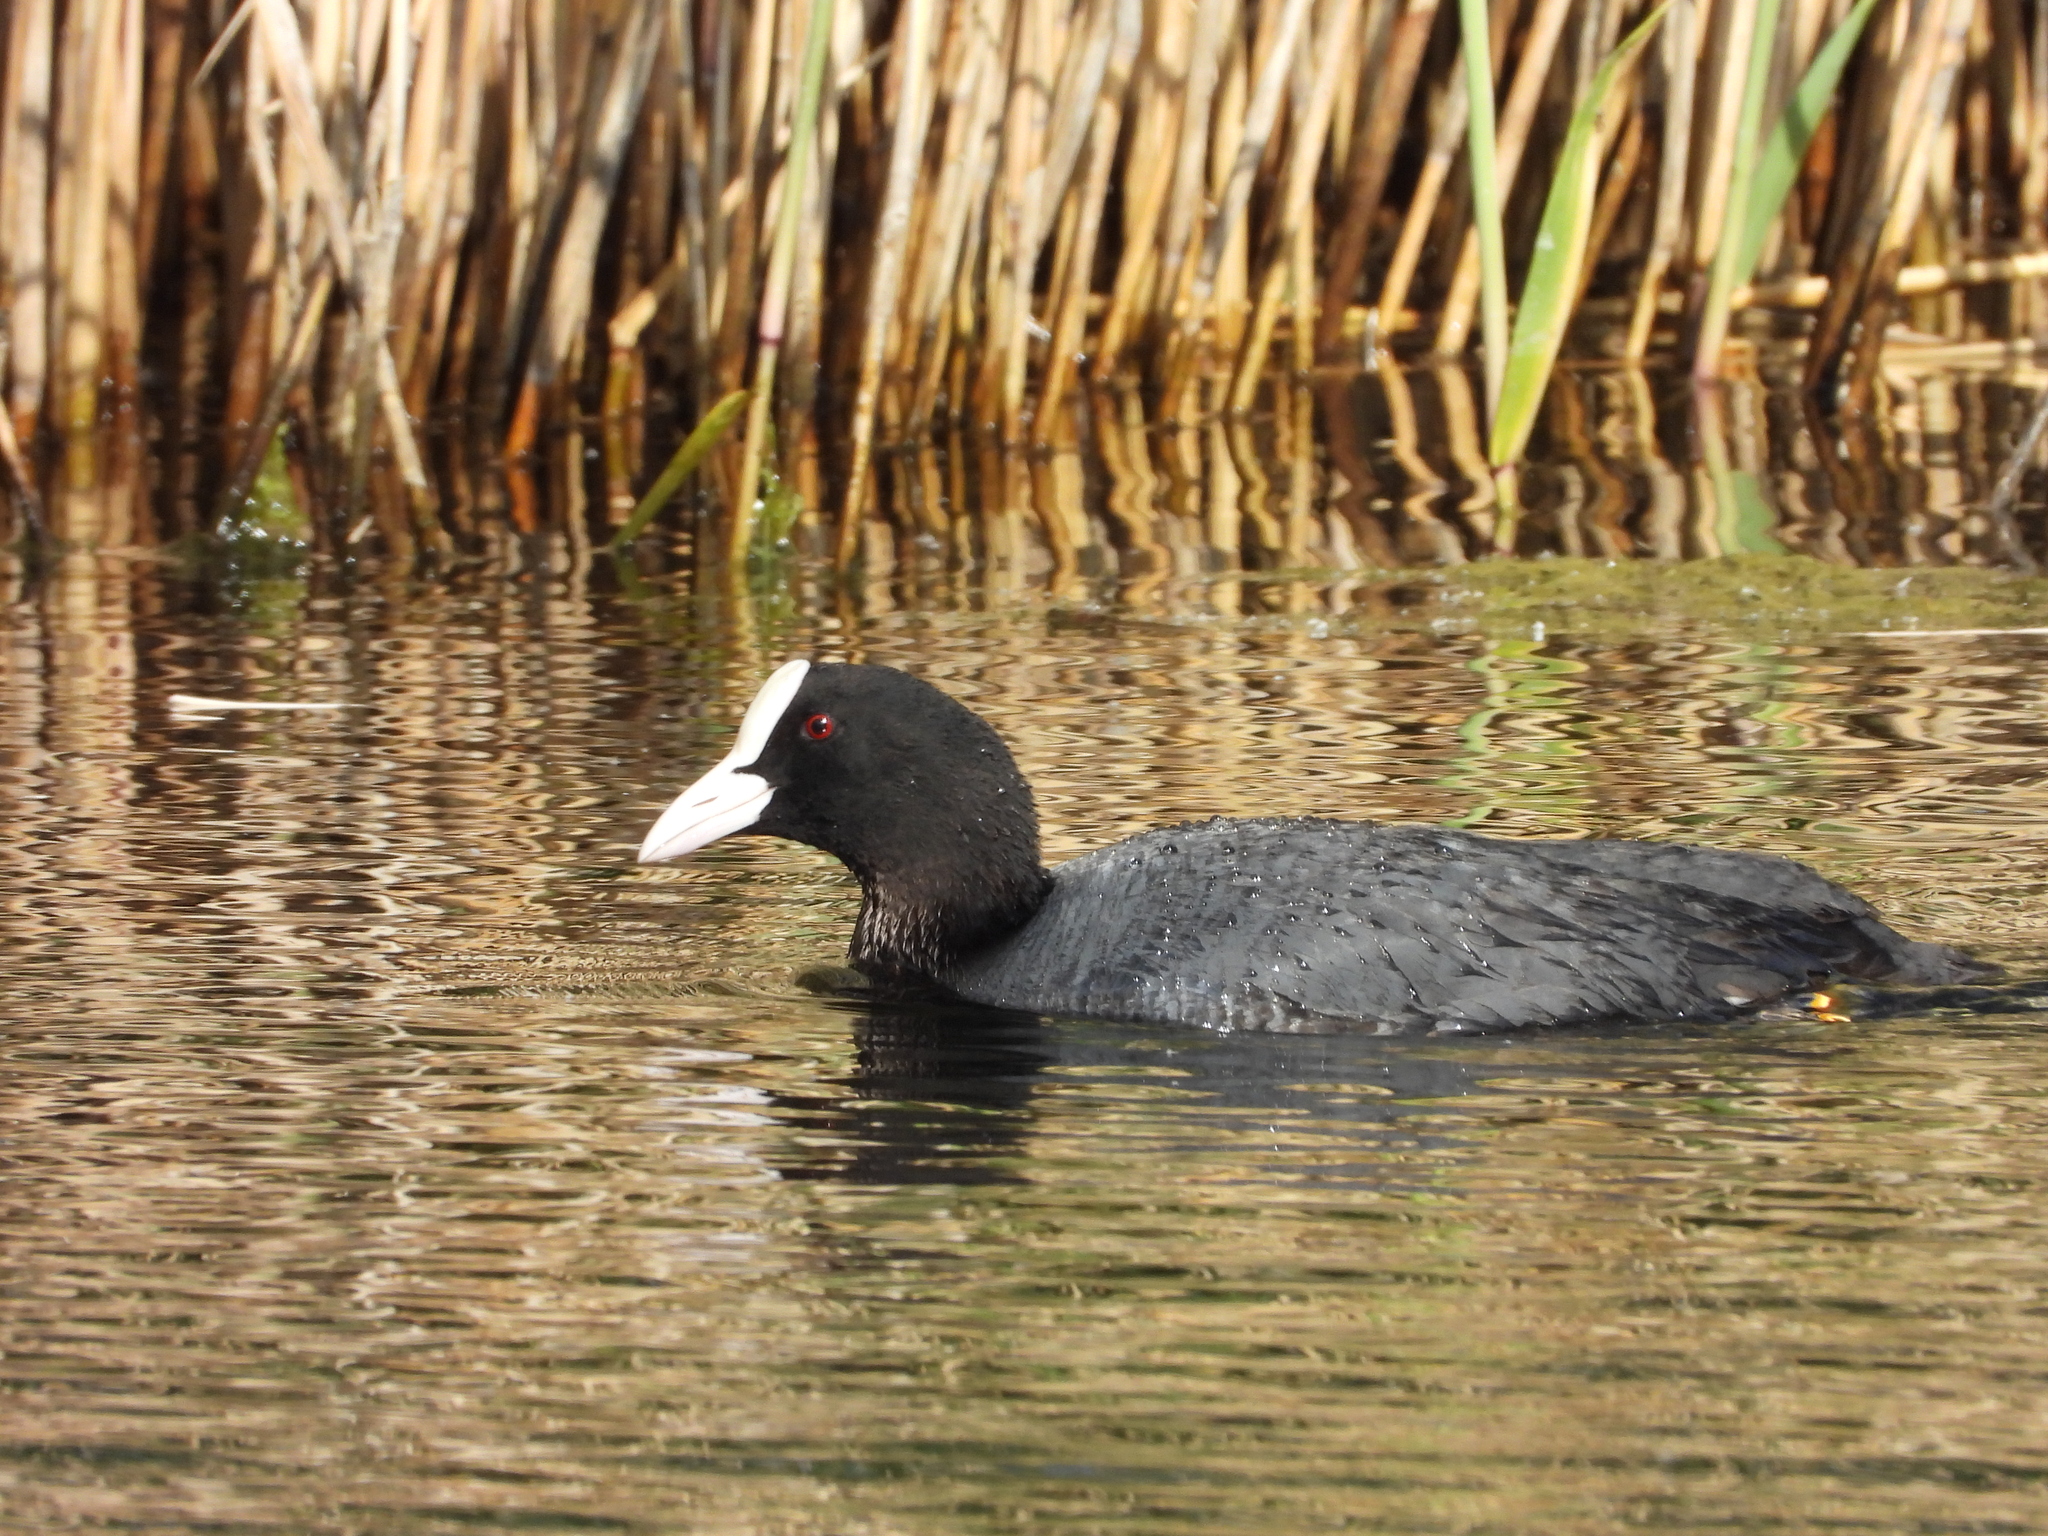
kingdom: Animalia
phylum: Chordata
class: Aves
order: Gruiformes
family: Rallidae
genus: Fulica
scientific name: Fulica atra
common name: Eurasian coot
